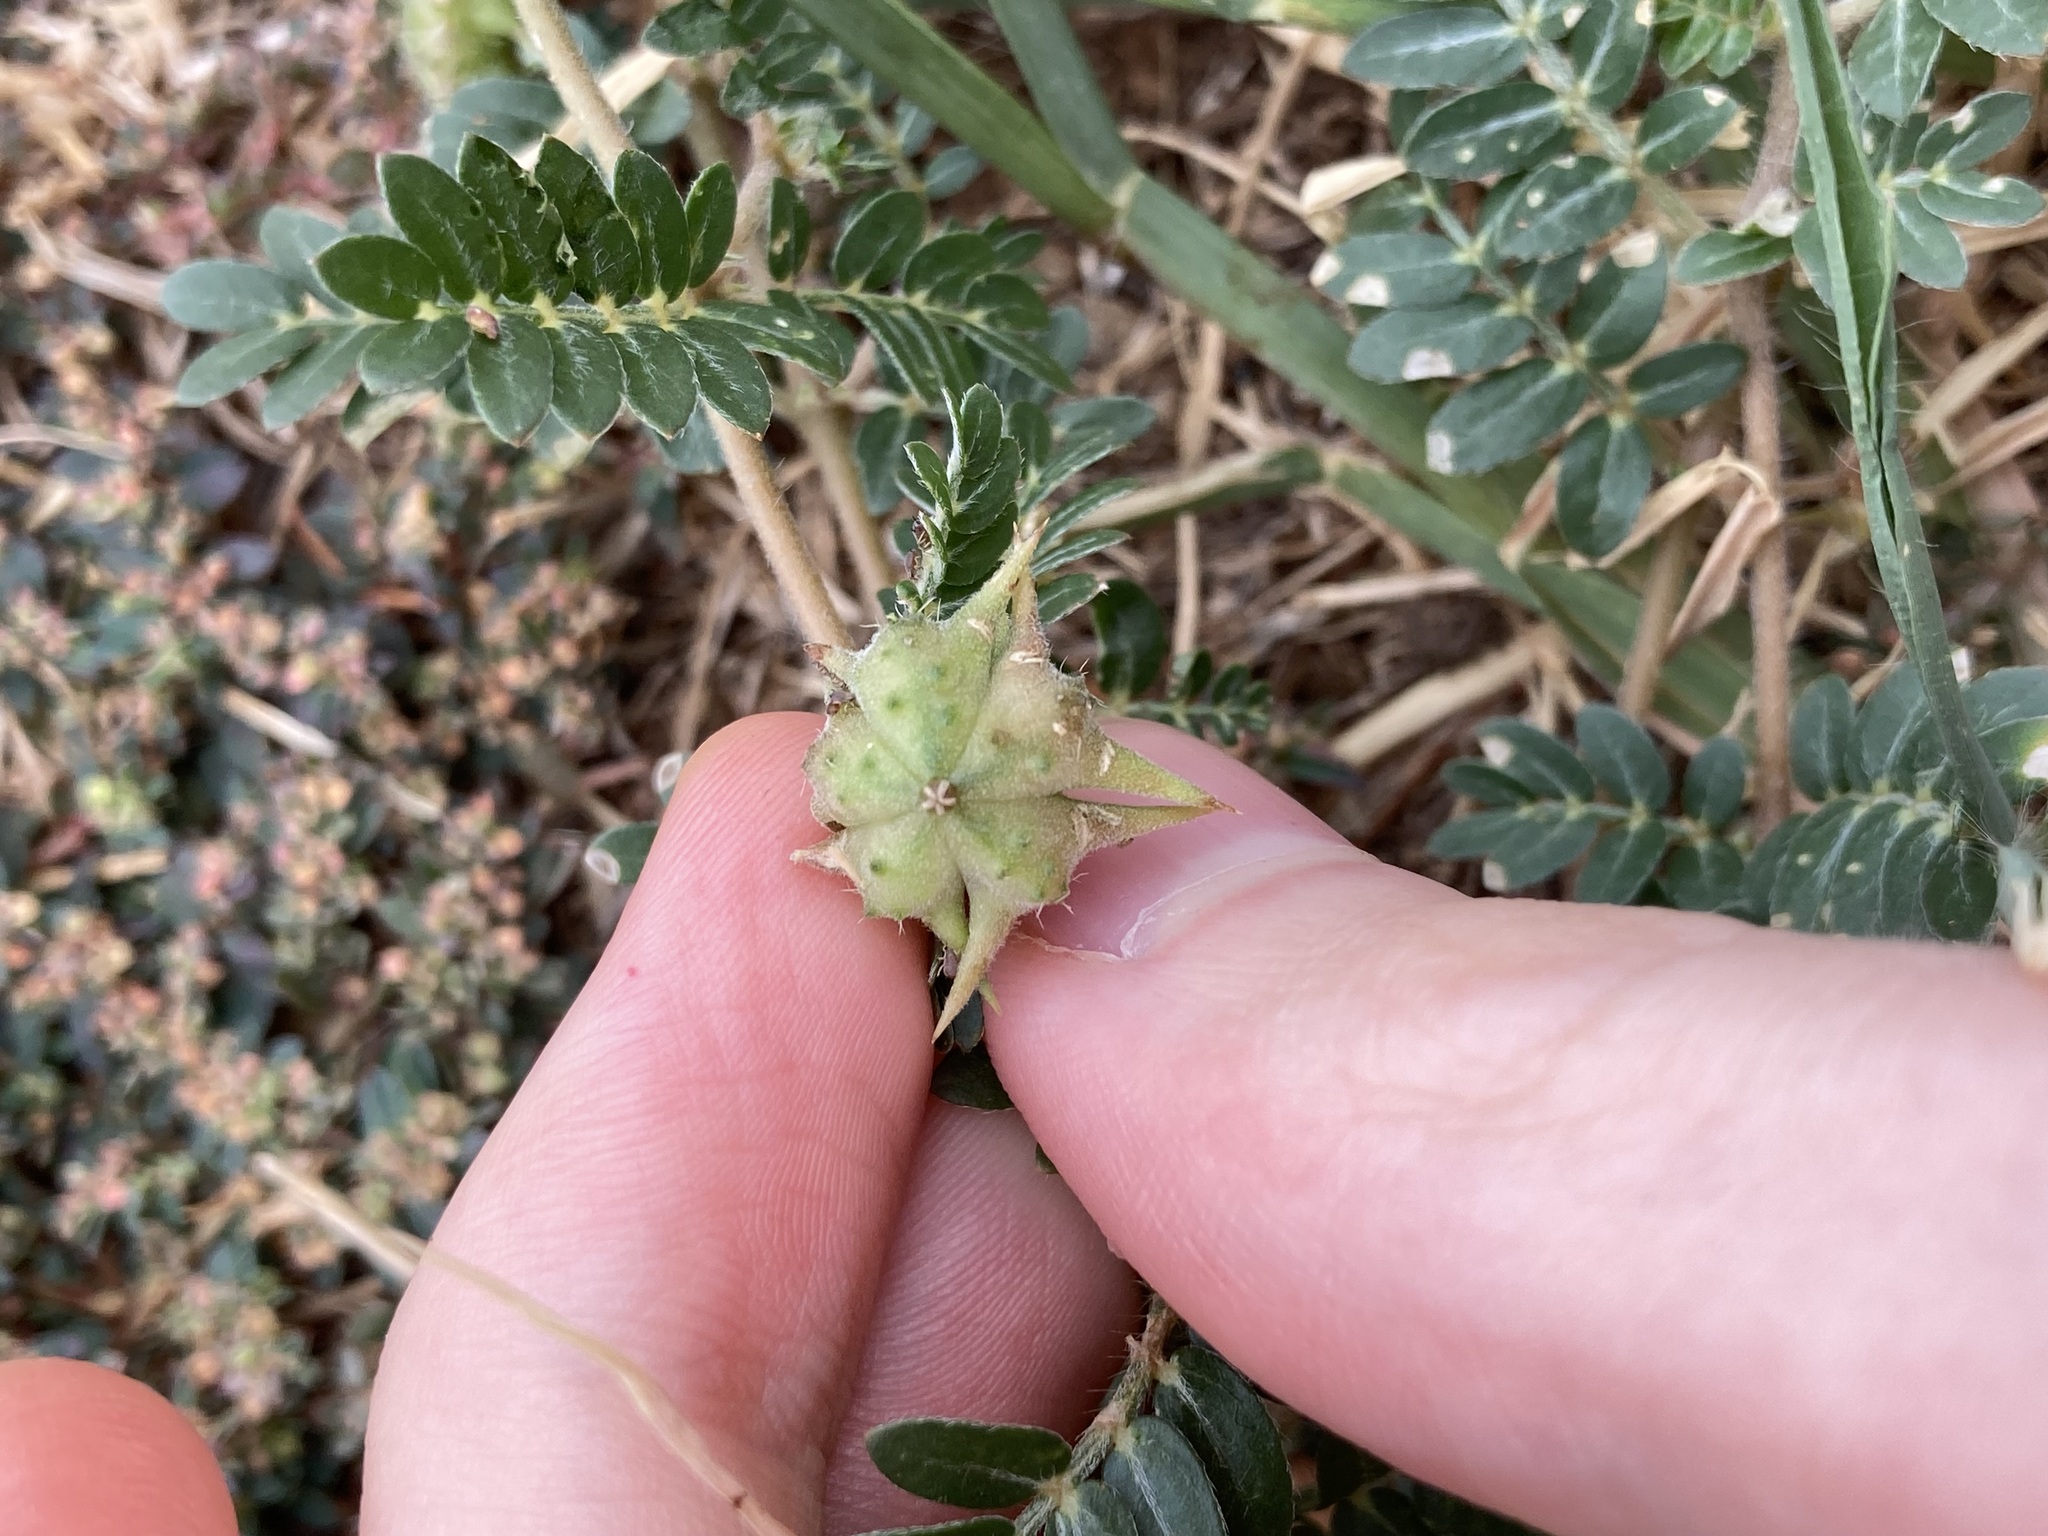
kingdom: Plantae
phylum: Tracheophyta
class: Magnoliopsida
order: Zygophyllales
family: Zygophyllaceae
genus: Tribulus
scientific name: Tribulus terrestris
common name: Puncturevine
